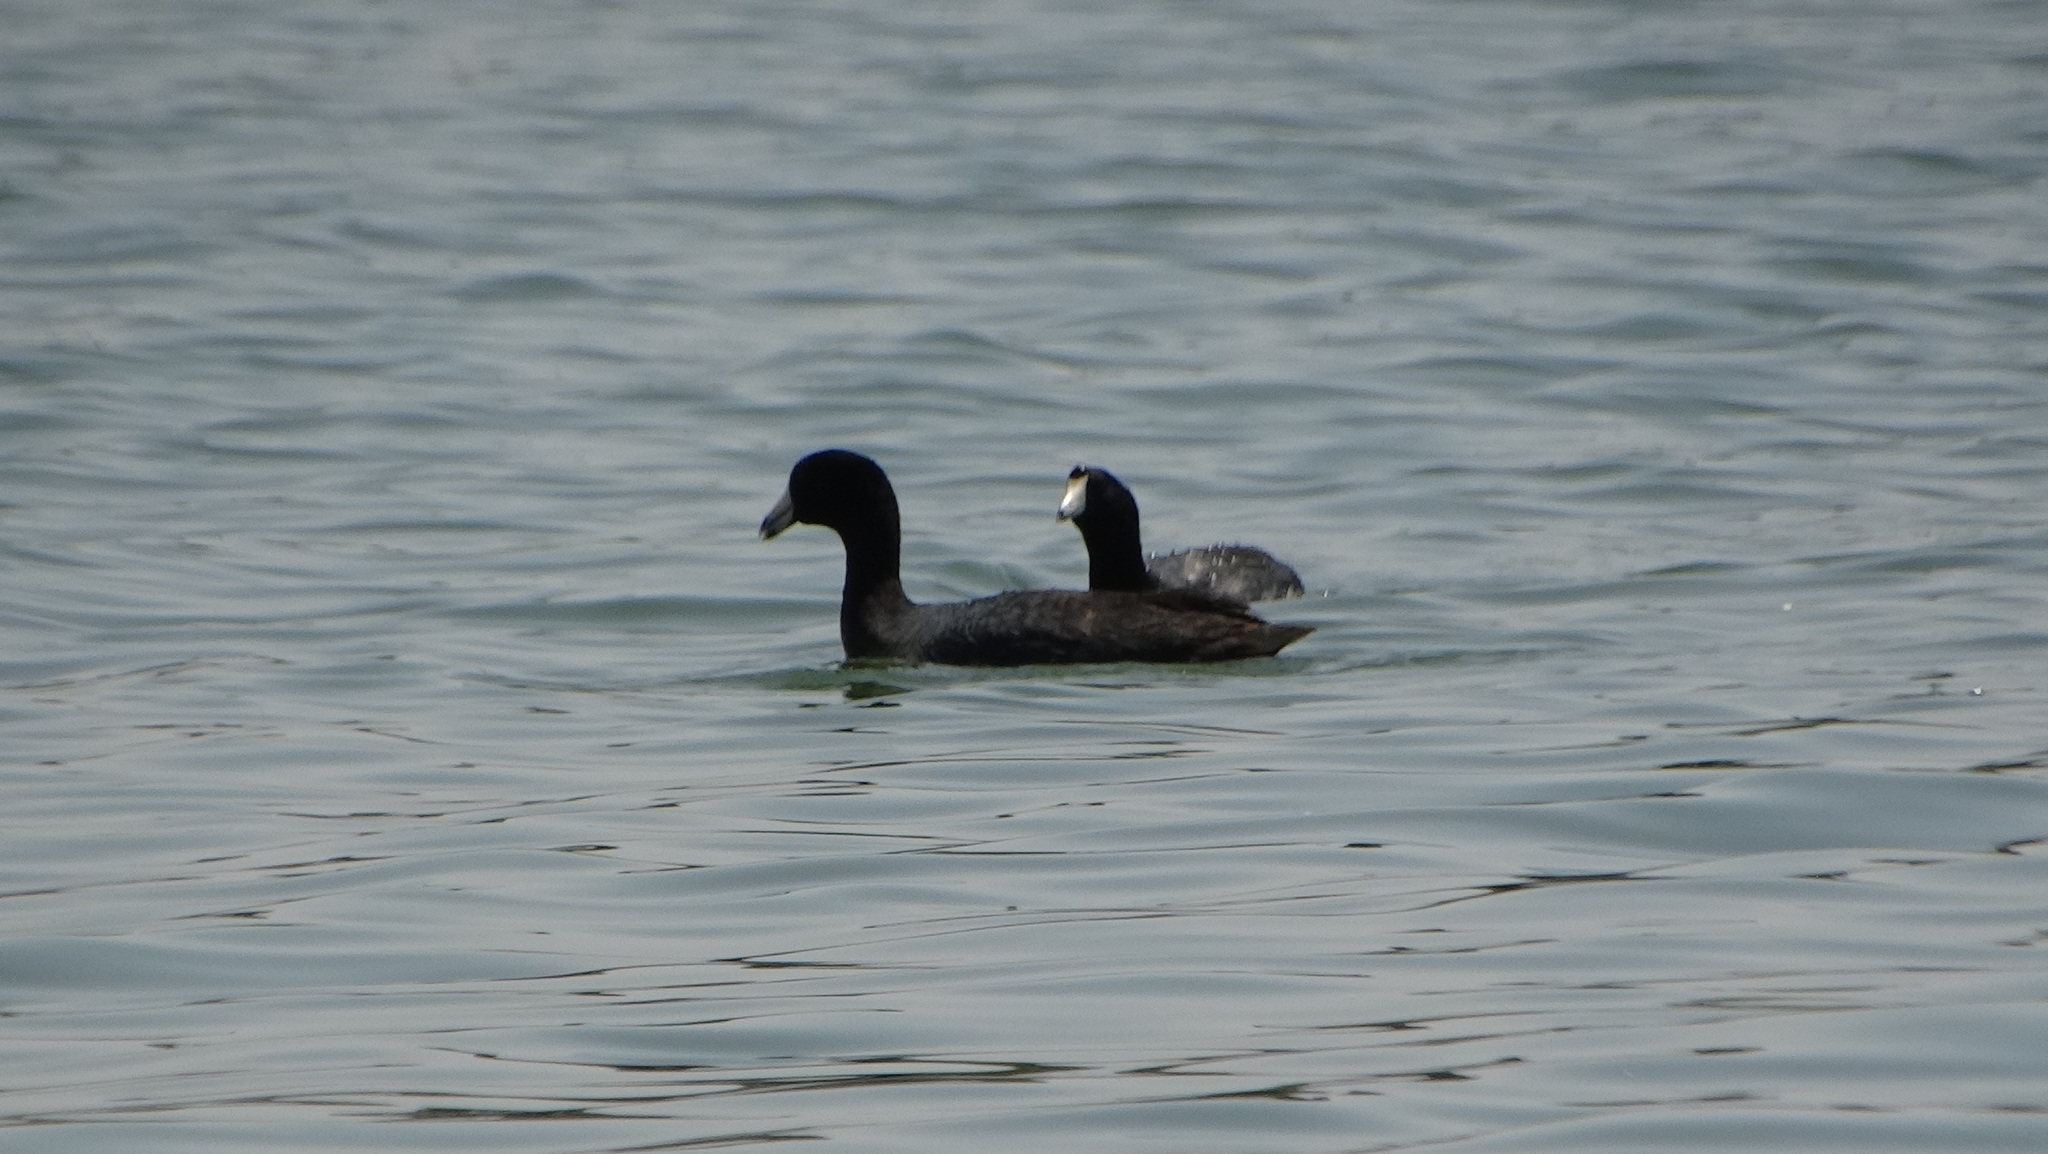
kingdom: Animalia
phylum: Chordata
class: Aves
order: Gruiformes
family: Rallidae
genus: Fulica
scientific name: Fulica americana
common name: American coot
